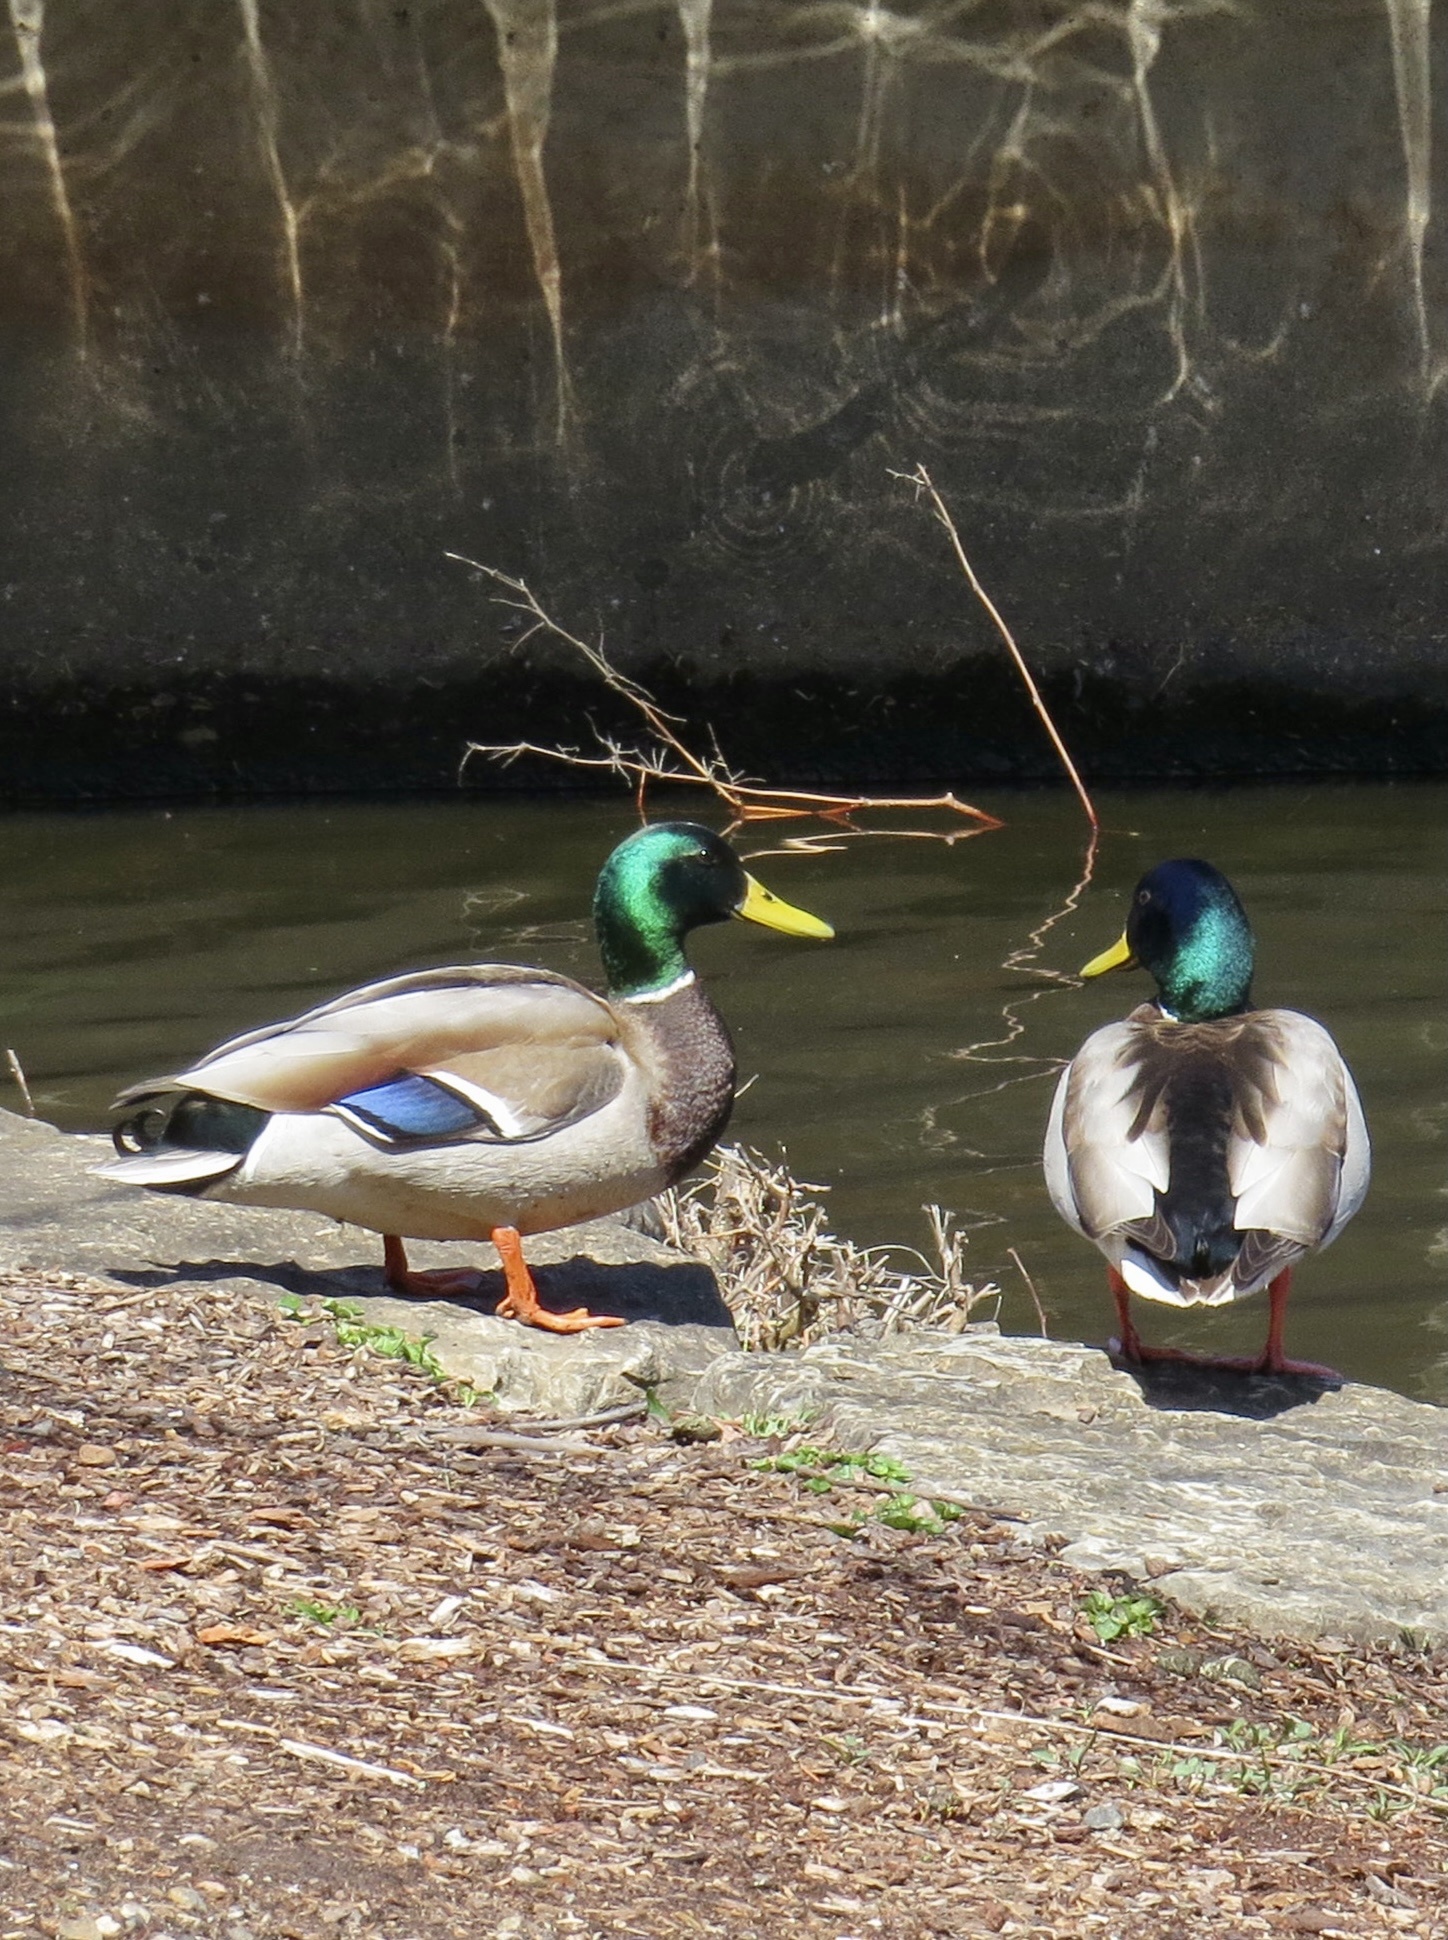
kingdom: Animalia
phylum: Chordata
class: Aves
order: Anseriformes
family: Anatidae
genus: Anas
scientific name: Anas platyrhynchos
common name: Mallard
